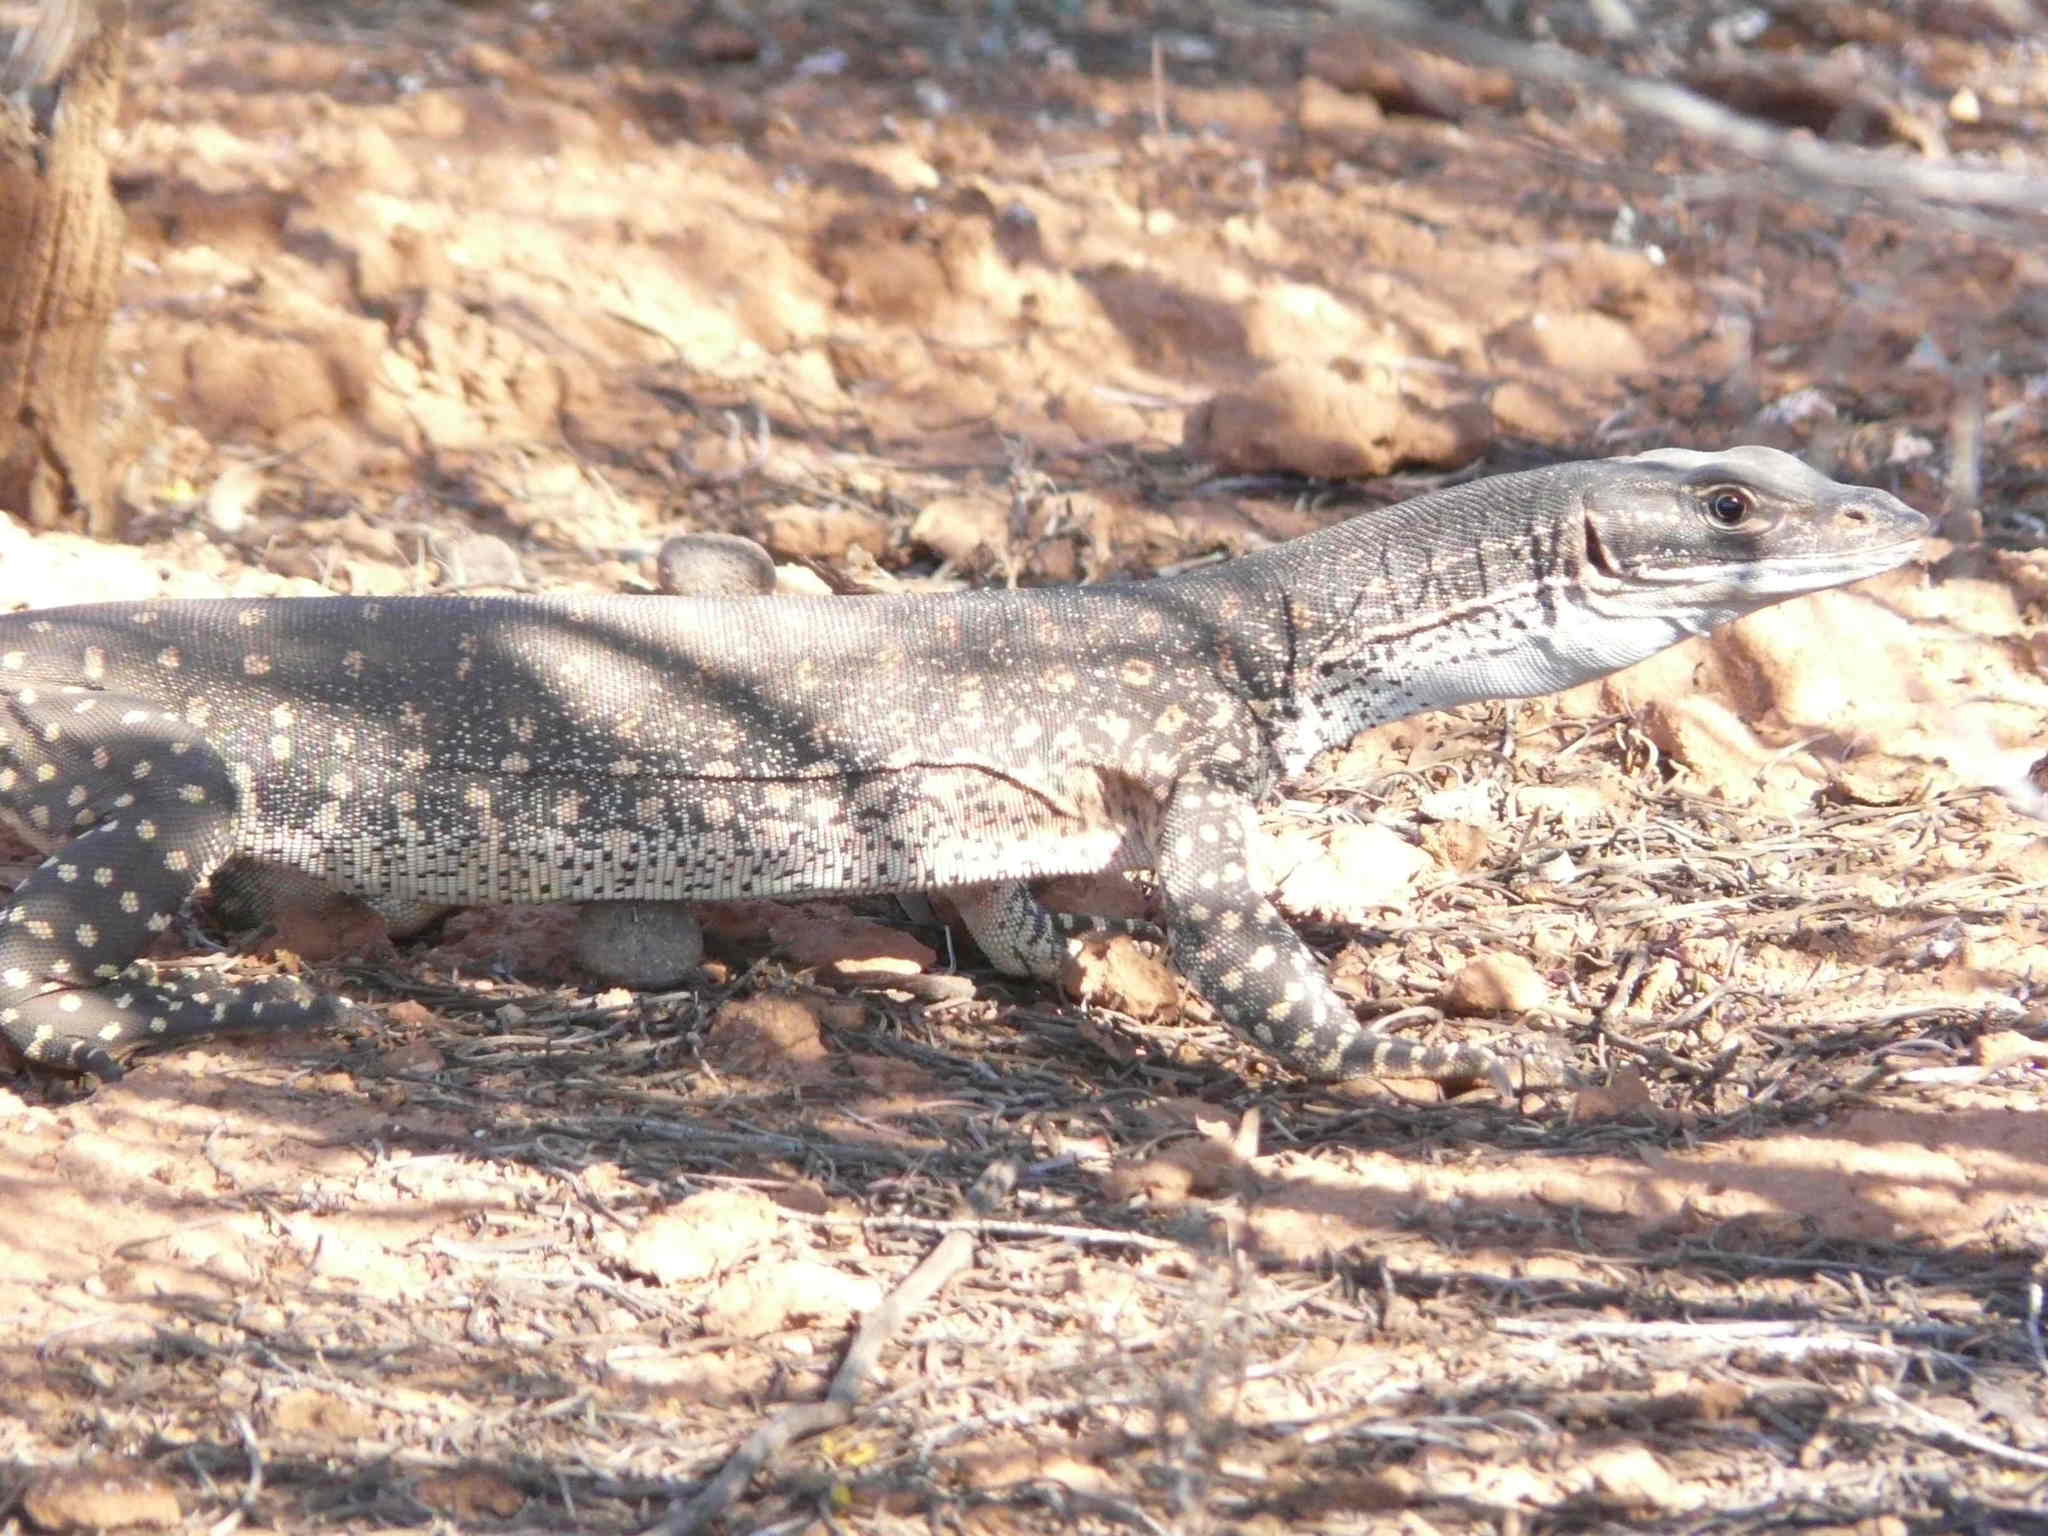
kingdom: Animalia
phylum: Chordata
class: Squamata
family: Varanidae
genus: Varanus
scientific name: Varanus gouldii
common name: Gould's goanna
